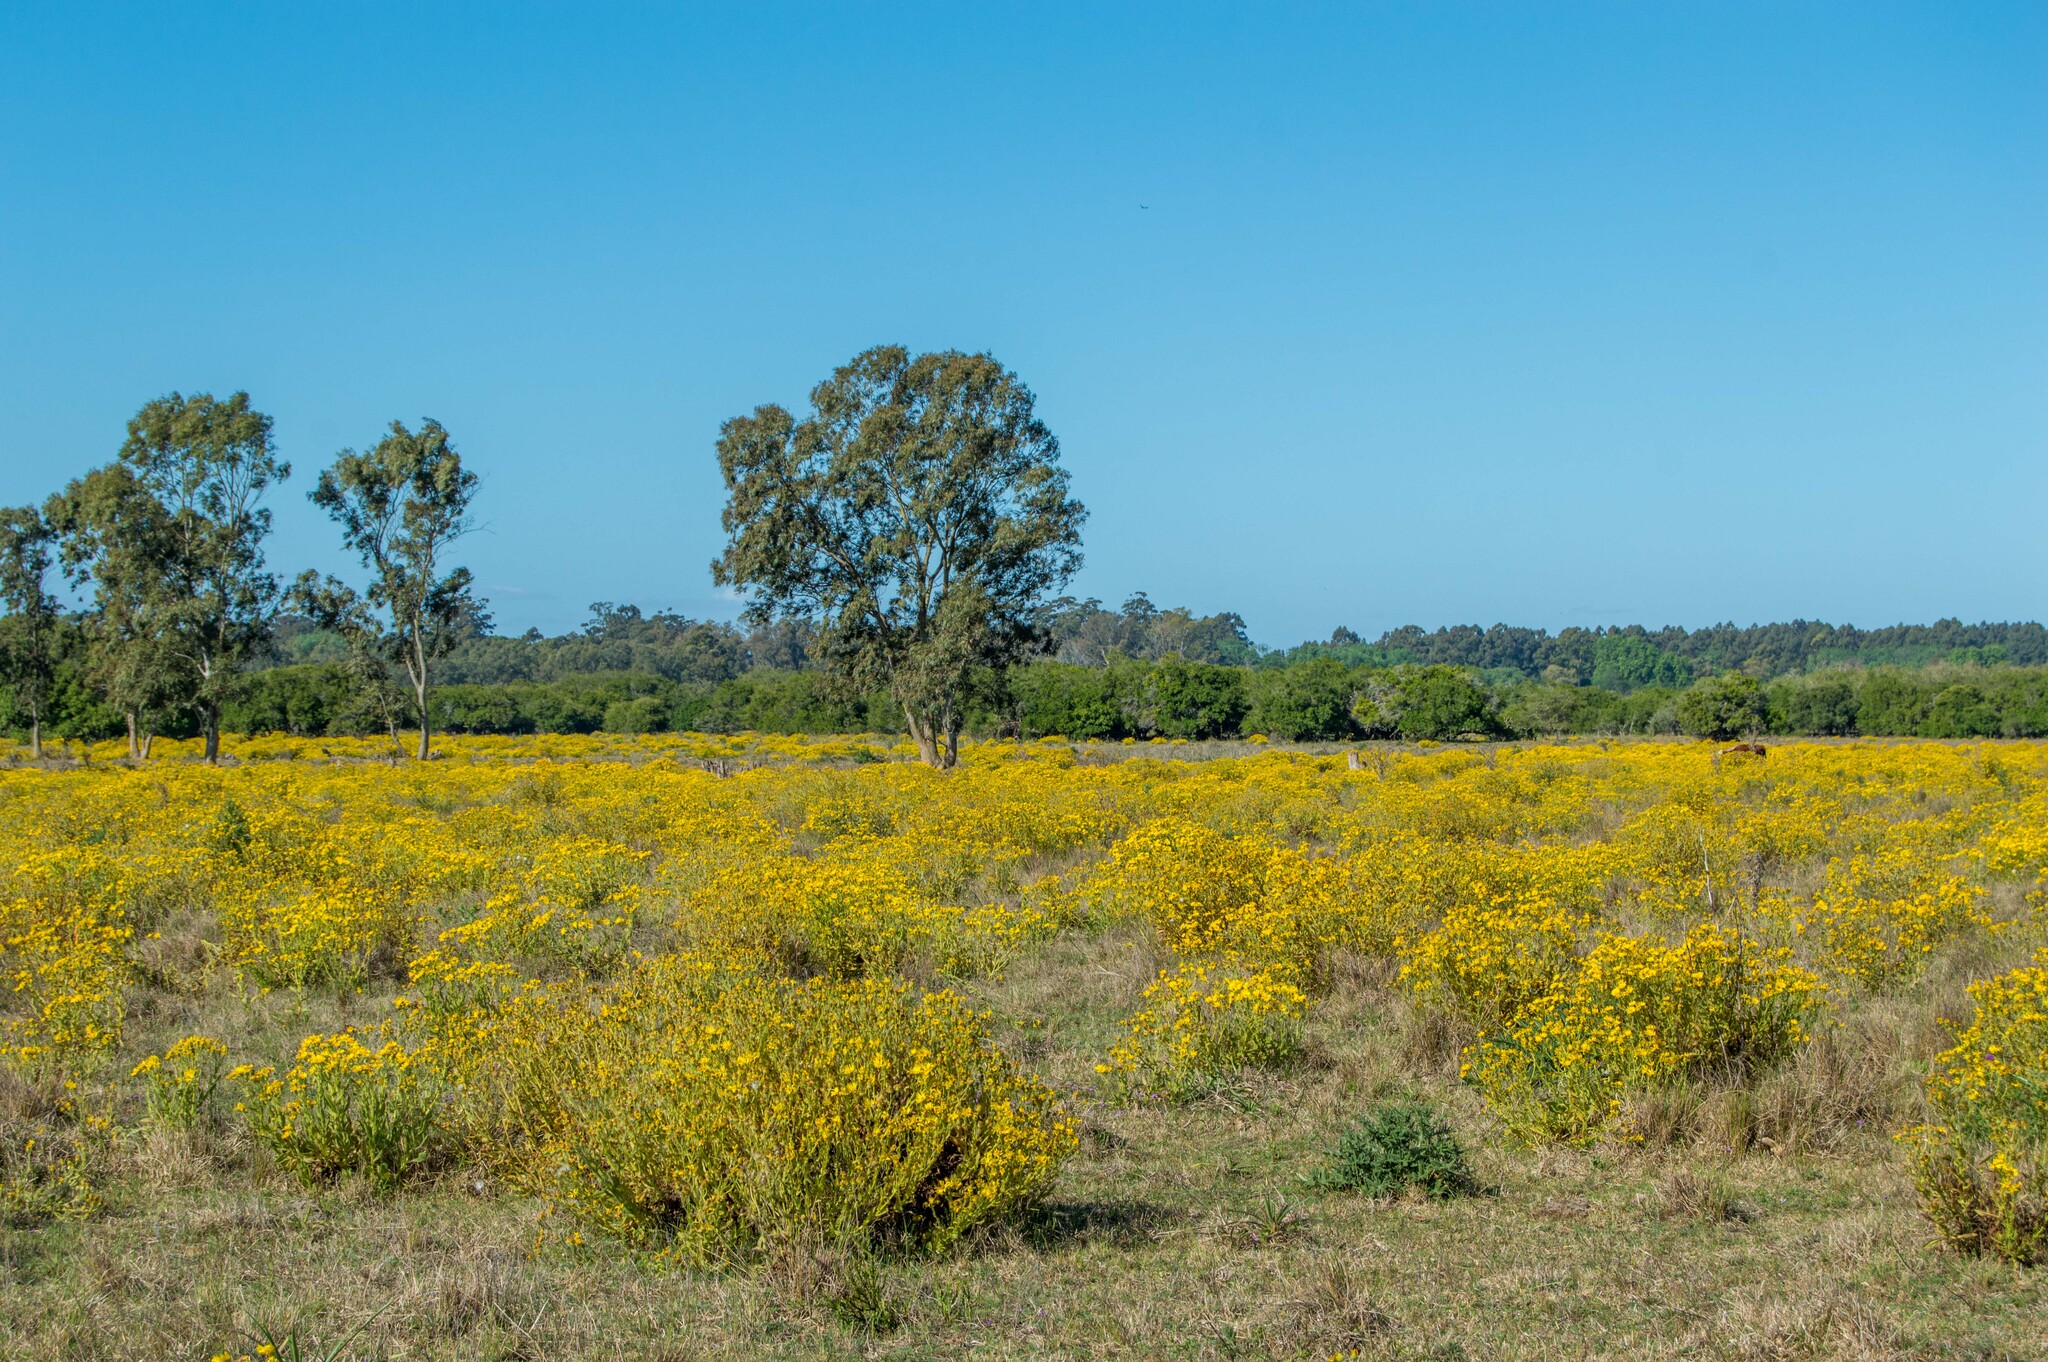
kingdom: Plantae
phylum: Tracheophyta
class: Magnoliopsida
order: Asterales
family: Asteraceae
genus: Senecio
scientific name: Senecio selloi
